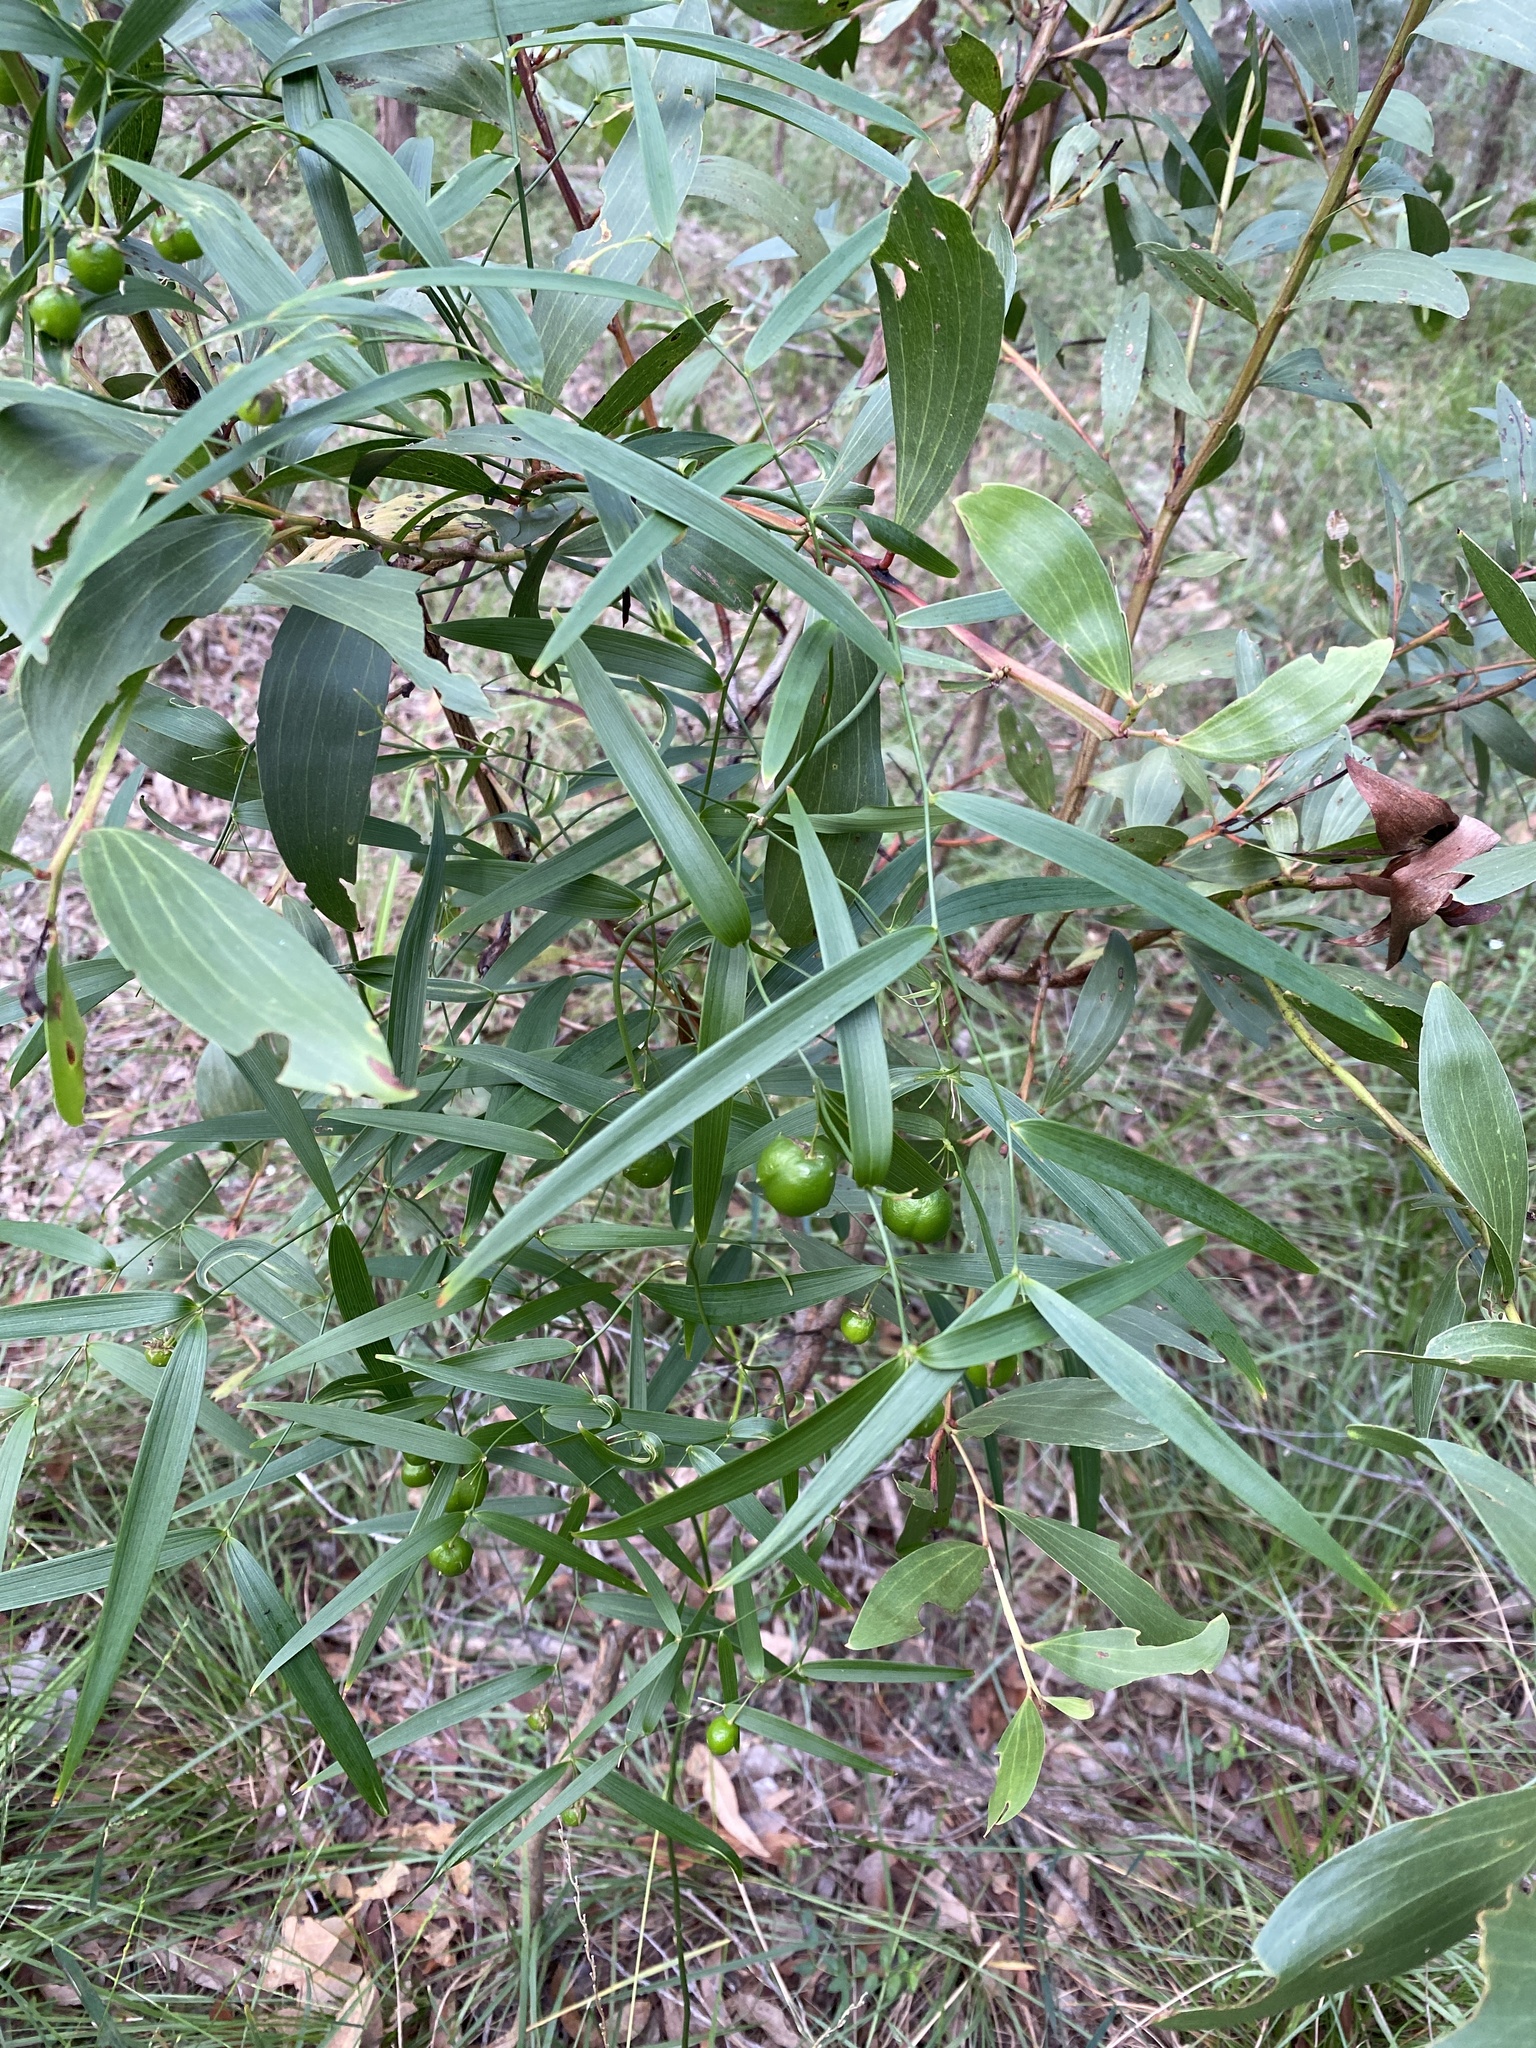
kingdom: Plantae
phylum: Tracheophyta
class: Liliopsida
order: Asparagales
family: Asparagaceae
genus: Eustrephus
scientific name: Eustrephus latifolius
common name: Orangevine
